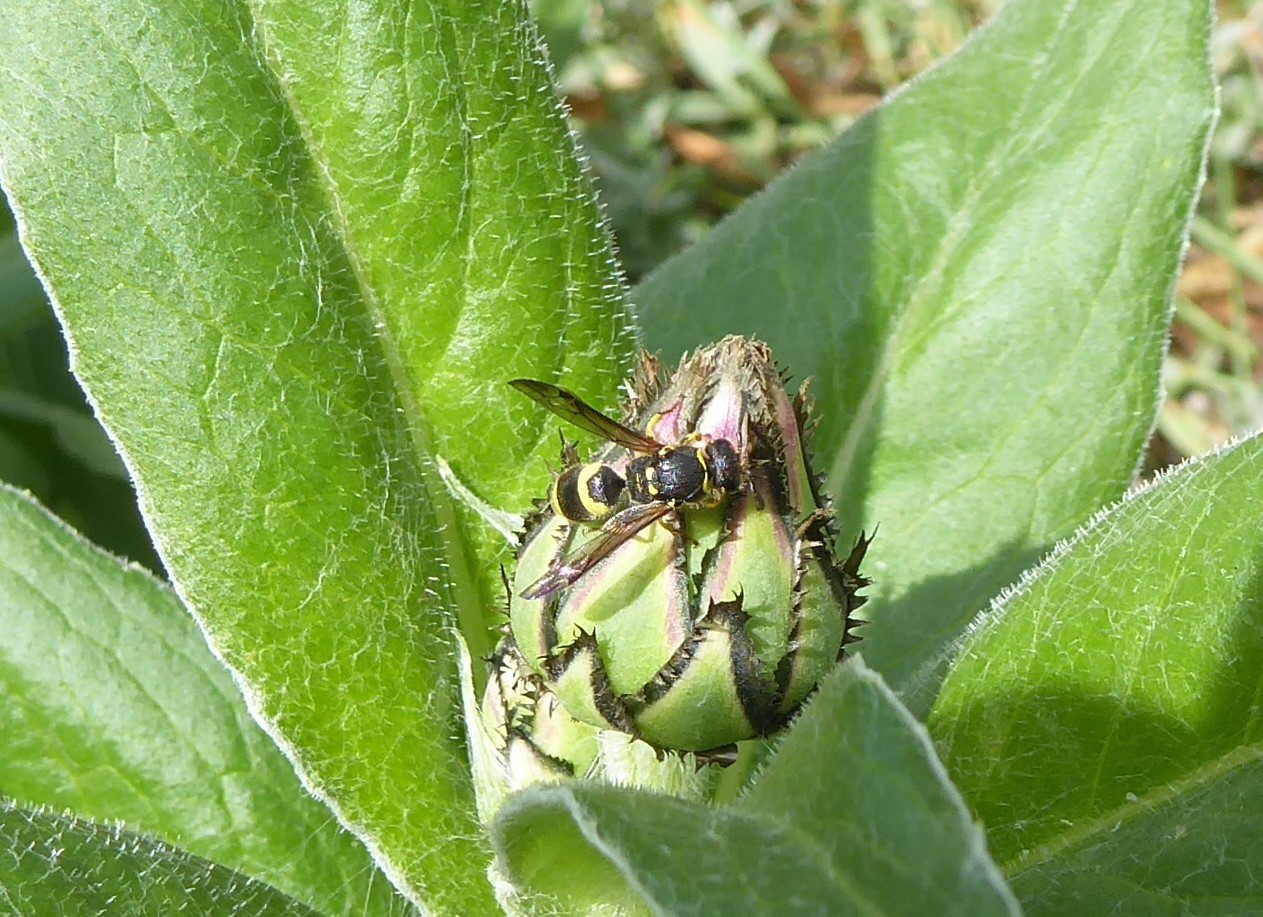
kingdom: Animalia
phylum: Arthropoda
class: Insecta
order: Hymenoptera
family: Vespidae
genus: Ancistrocerus
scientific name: Ancistrocerus gazella
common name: European tube wasp
